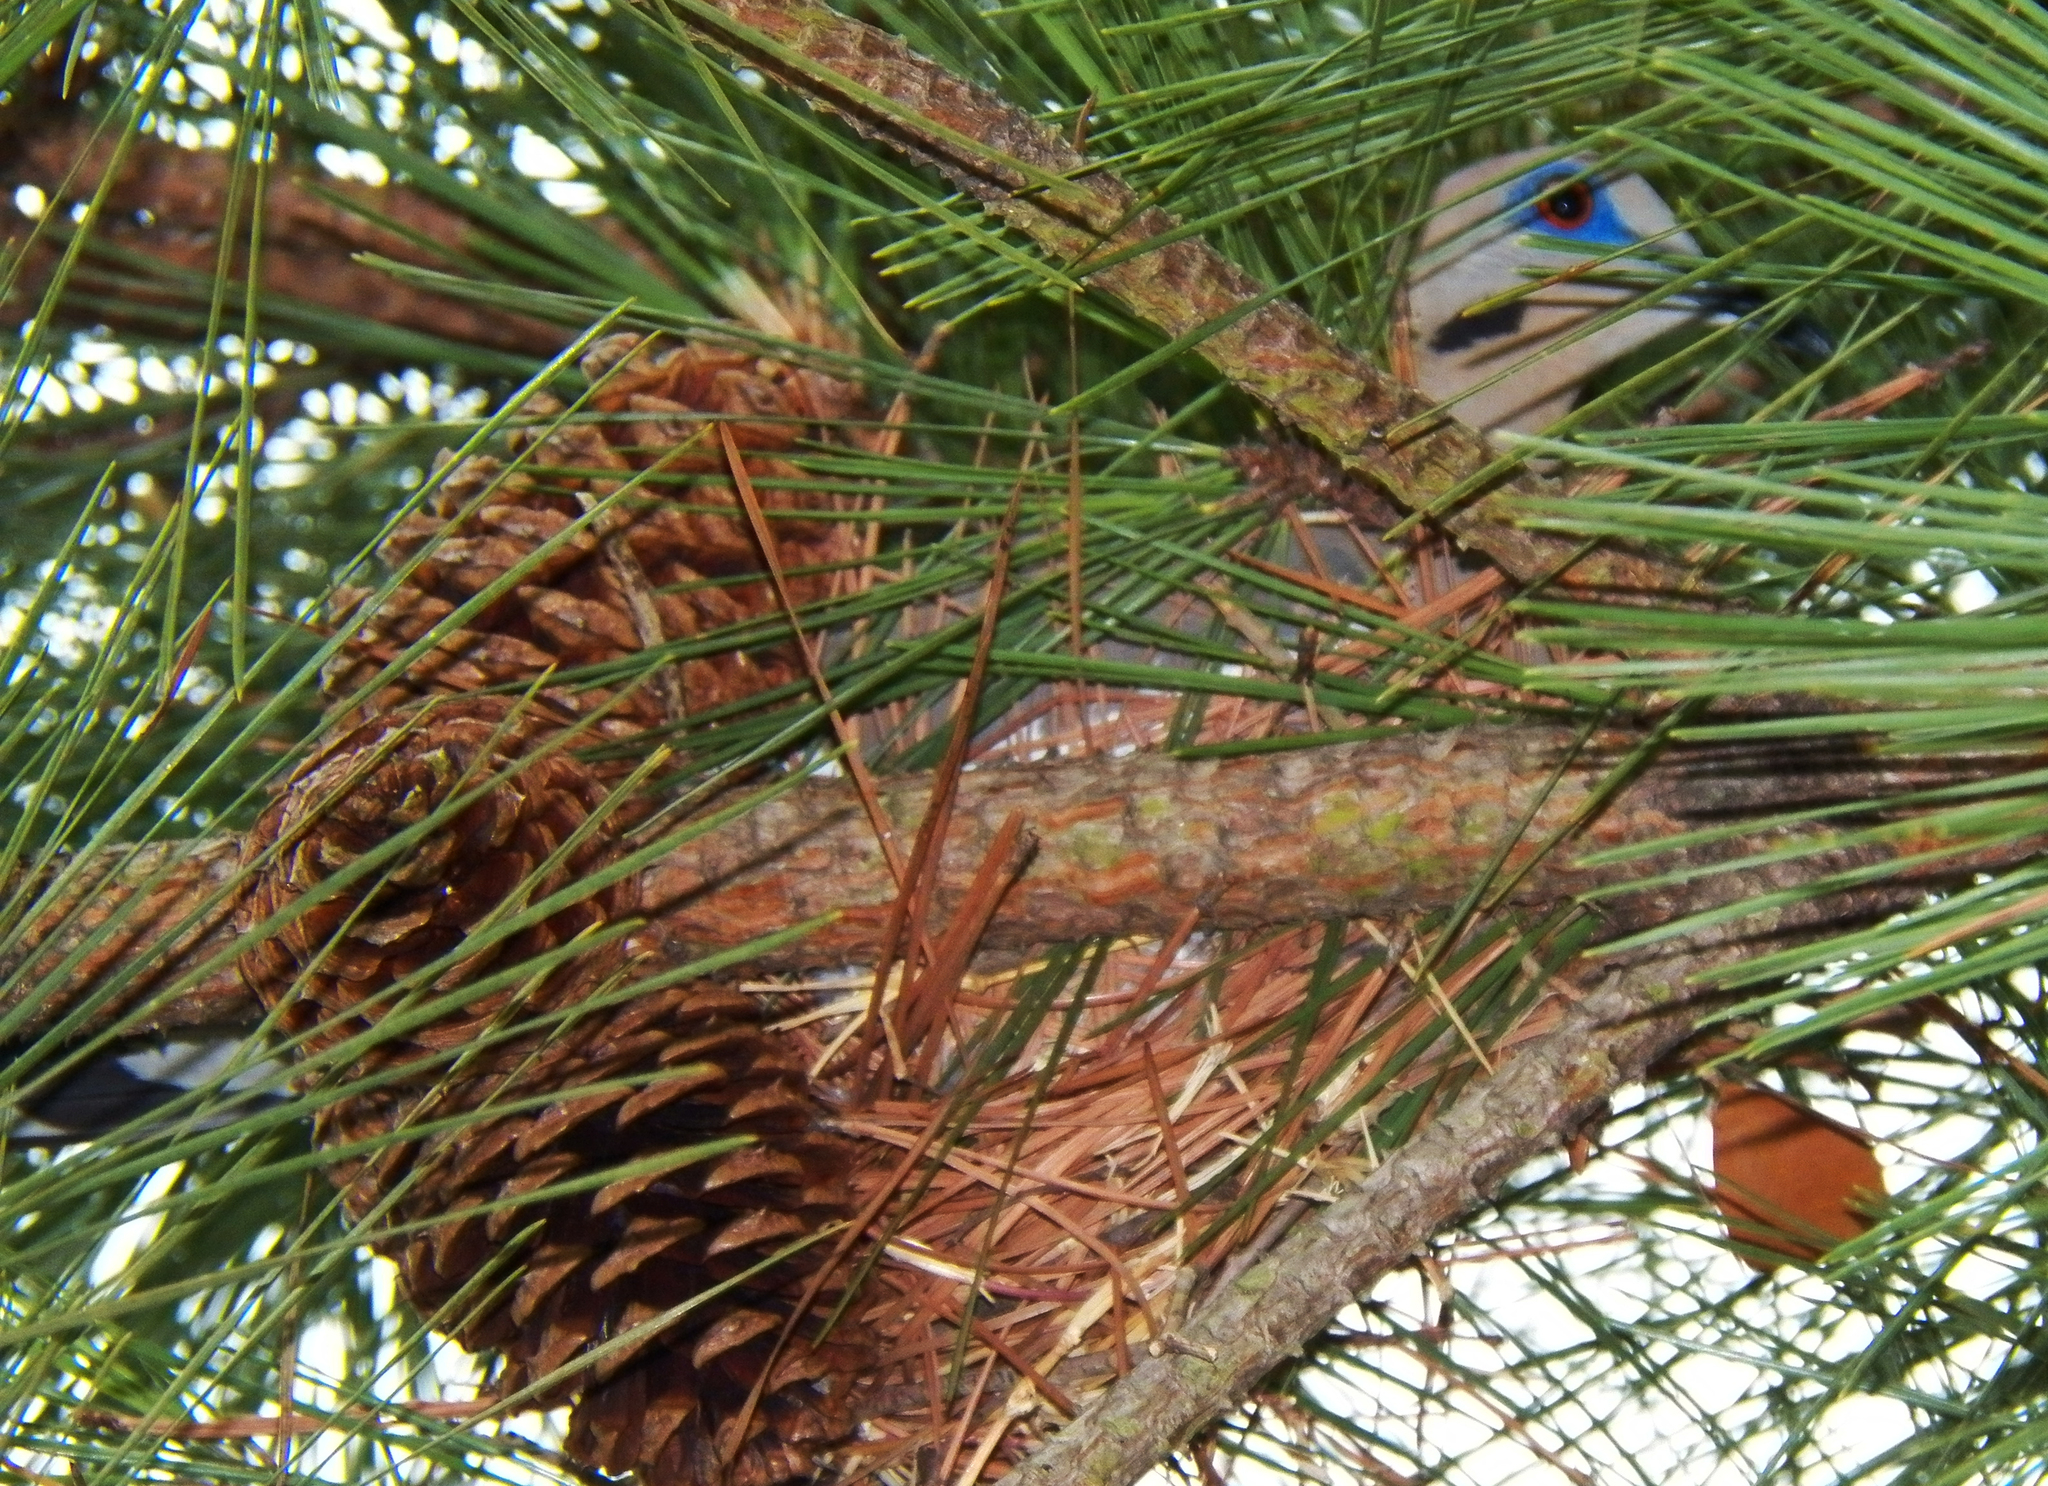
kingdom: Animalia
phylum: Chordata
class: Aves
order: Columbiformes
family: Columbidae
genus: Zenaida
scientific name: Zenaida asiatica
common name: White-winged dove
